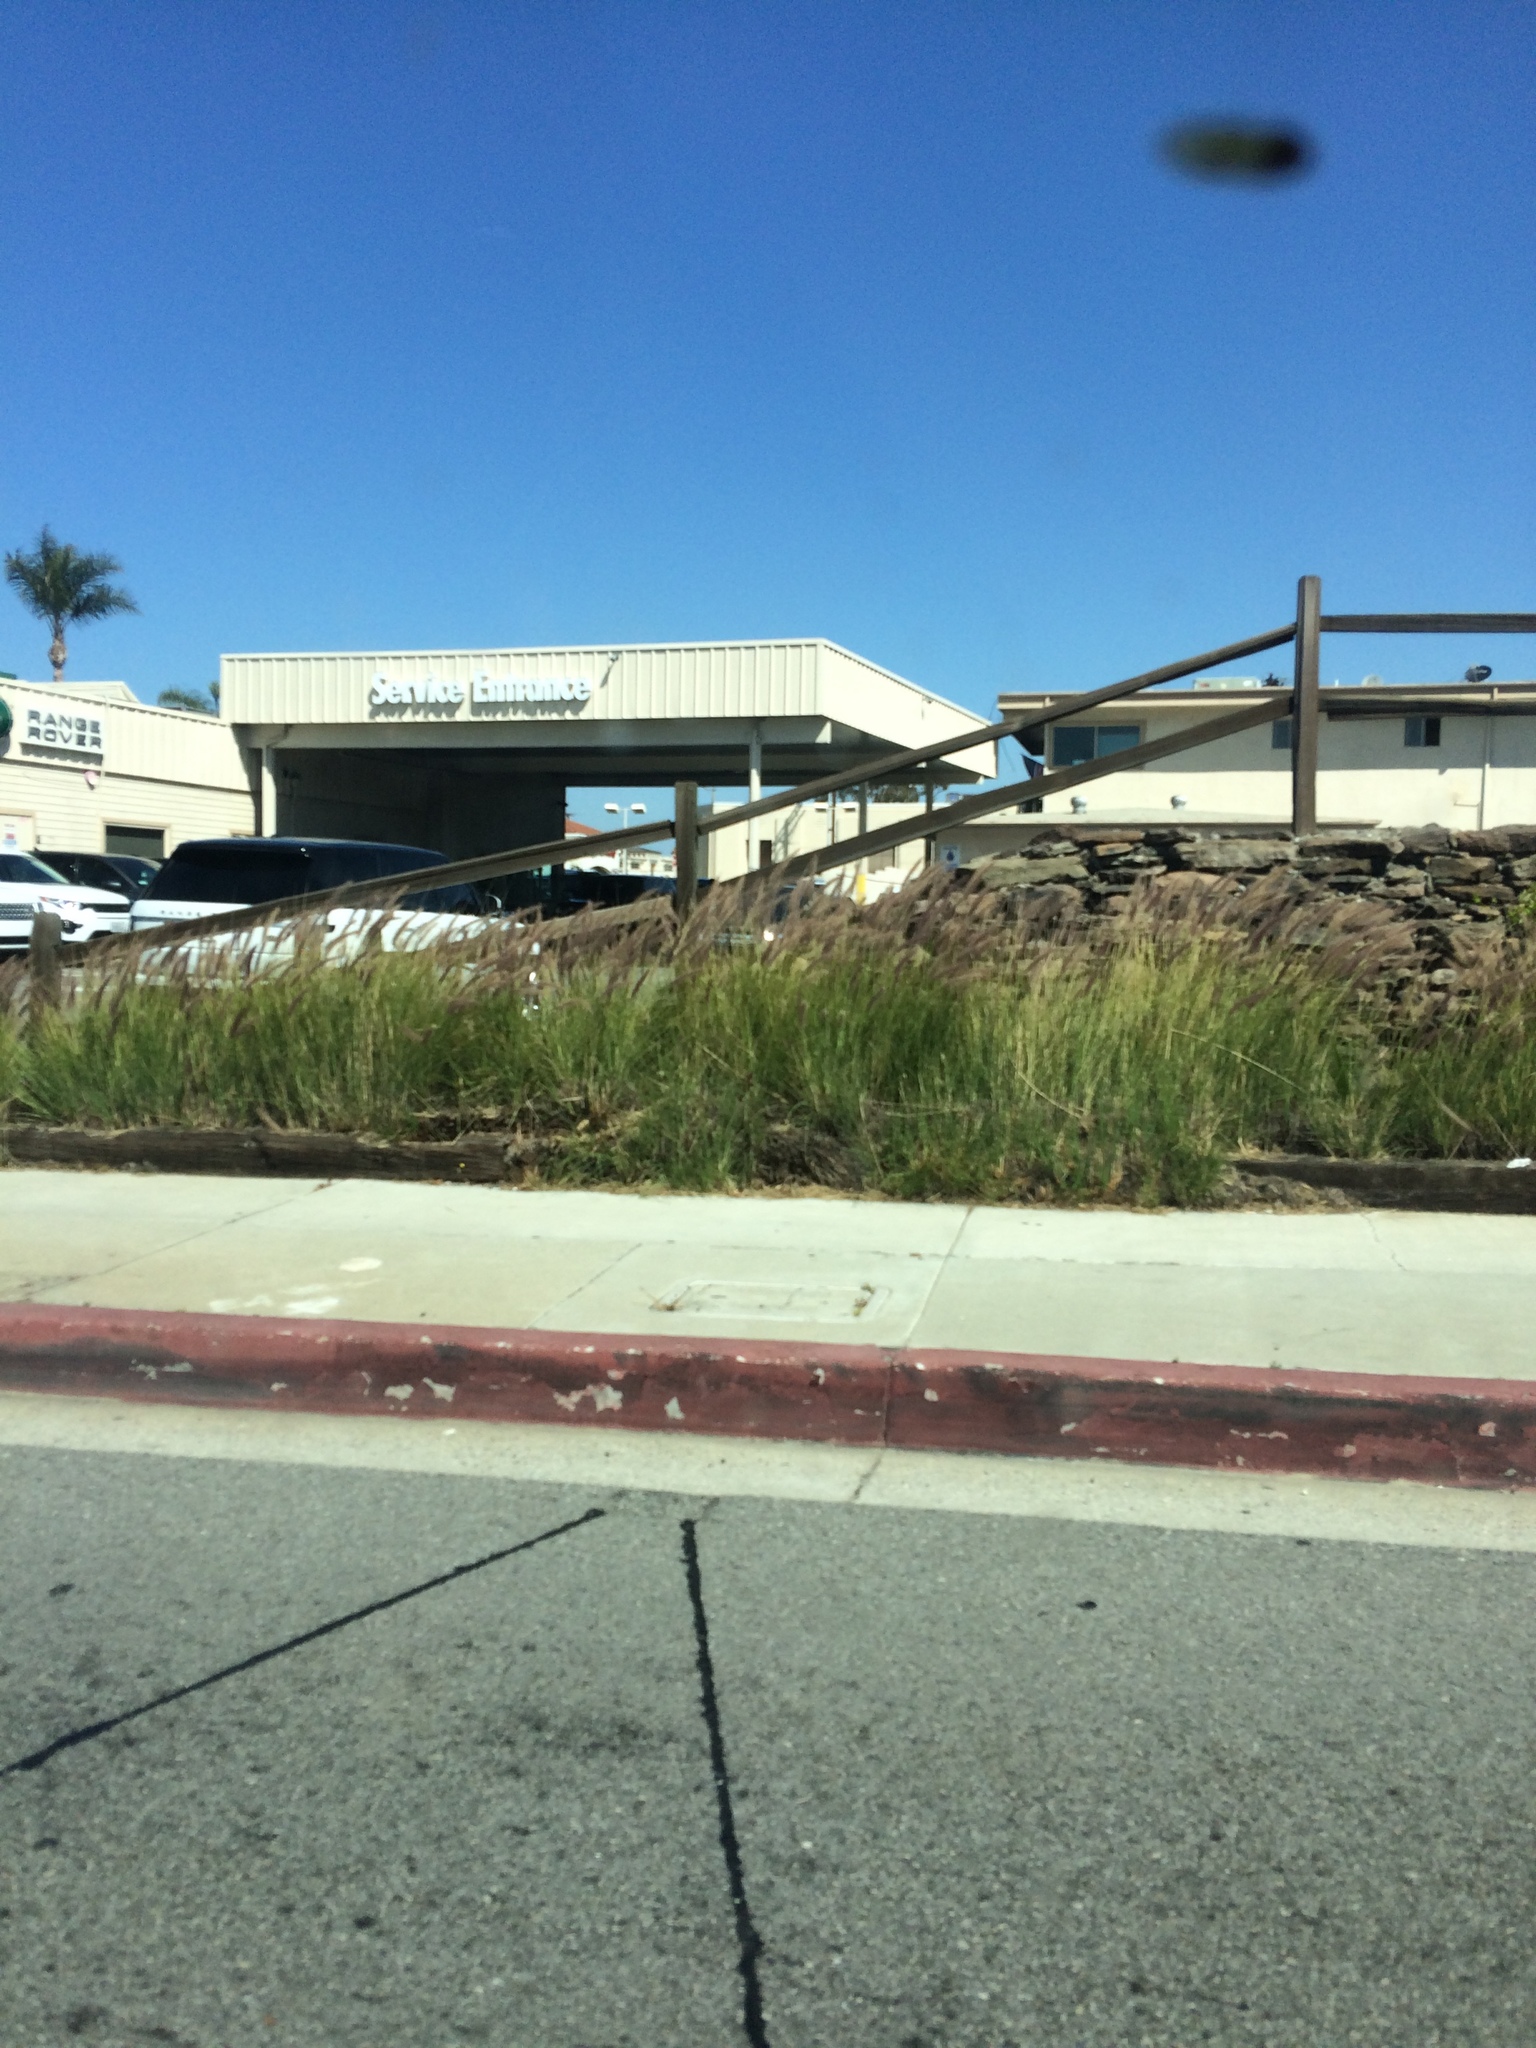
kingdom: Plantae
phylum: Tracheophyta
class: Liliopsida
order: Poales
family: Poaceae
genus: Cenchrus
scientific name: Cenchrus setaceus
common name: Crimson fountaingrass
